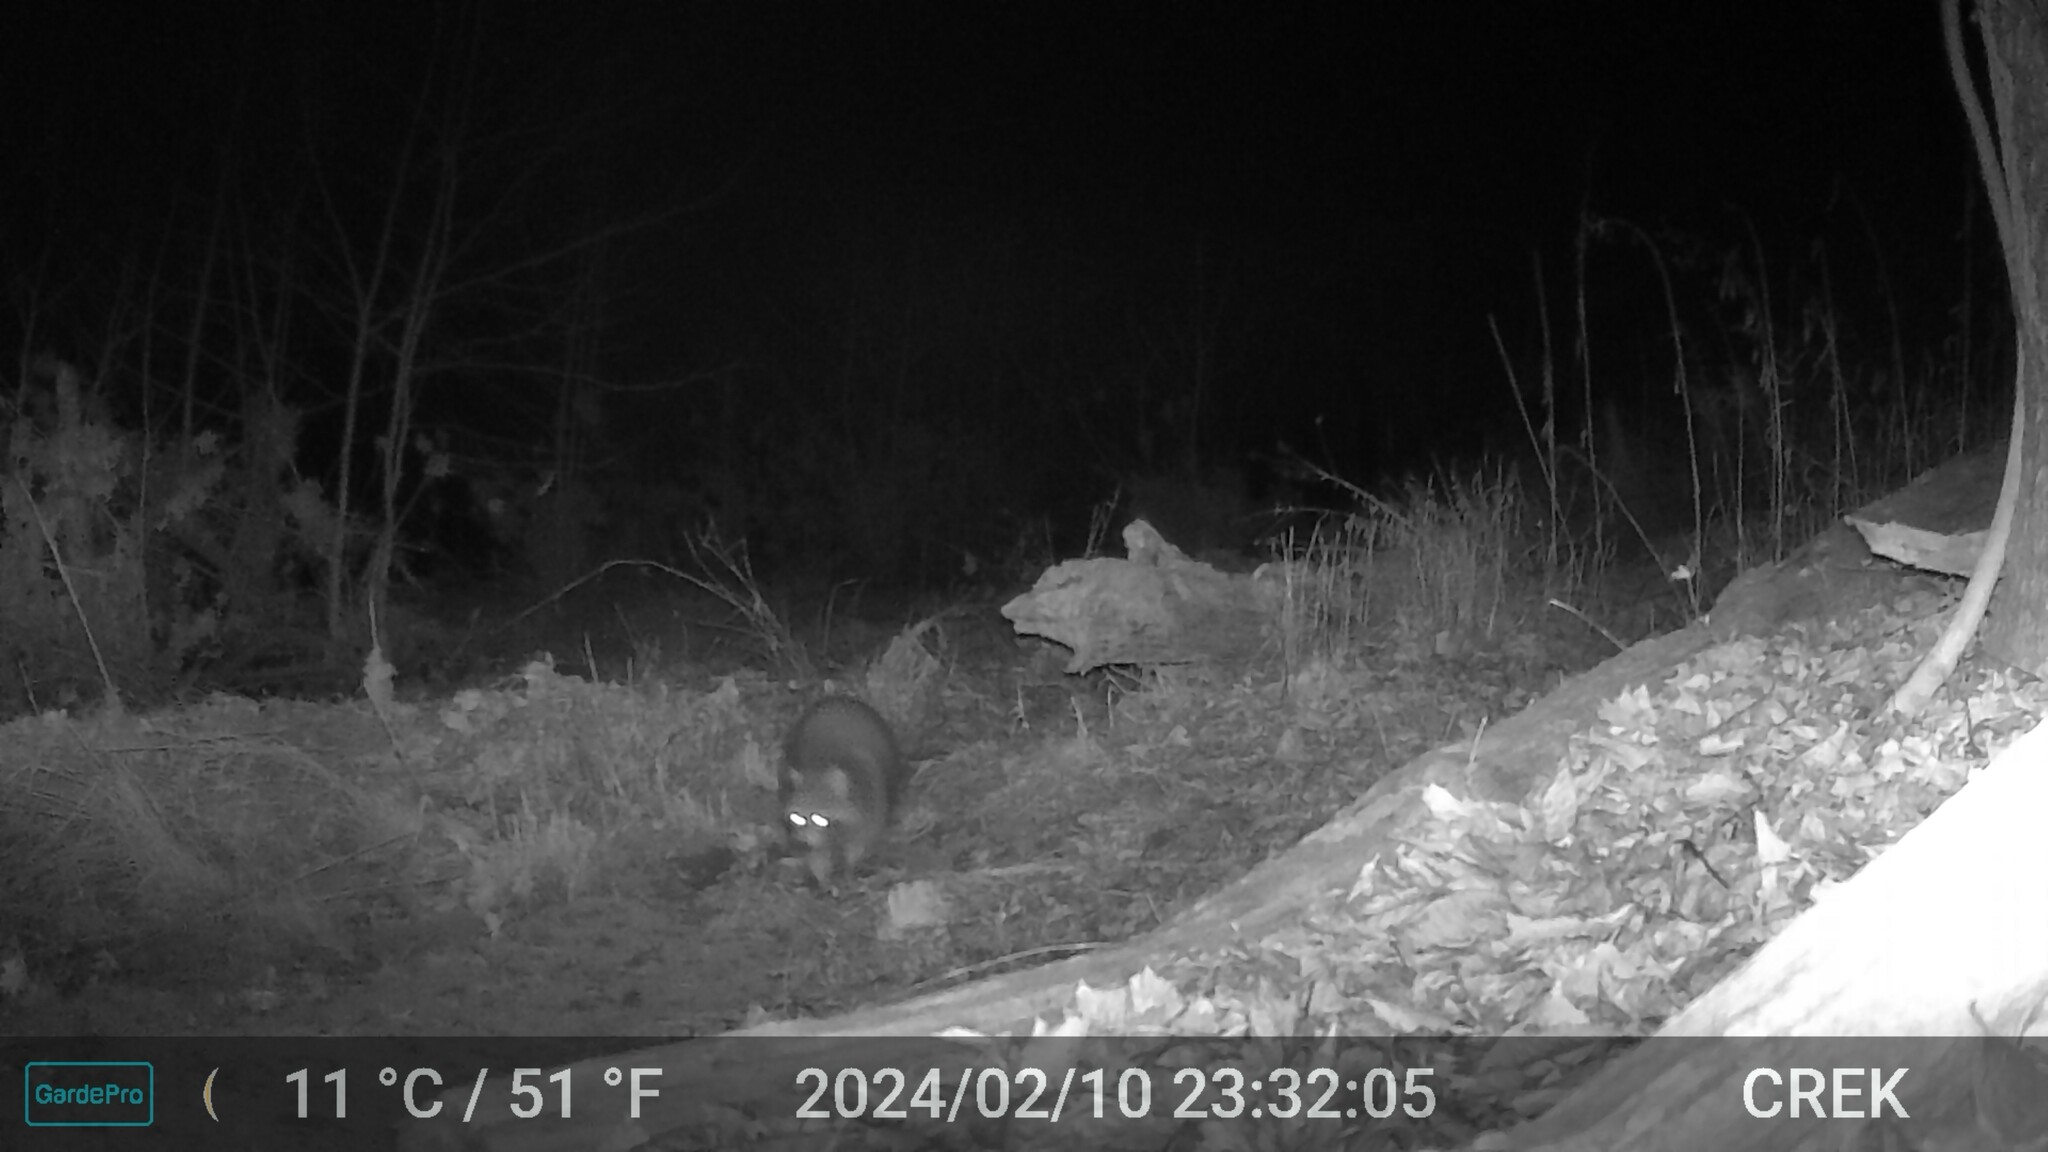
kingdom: Animalia
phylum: Chordata
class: Mammalia
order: Carnivora
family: Procyonidae
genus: Procyon
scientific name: Procyon lotor
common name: Raccoon
